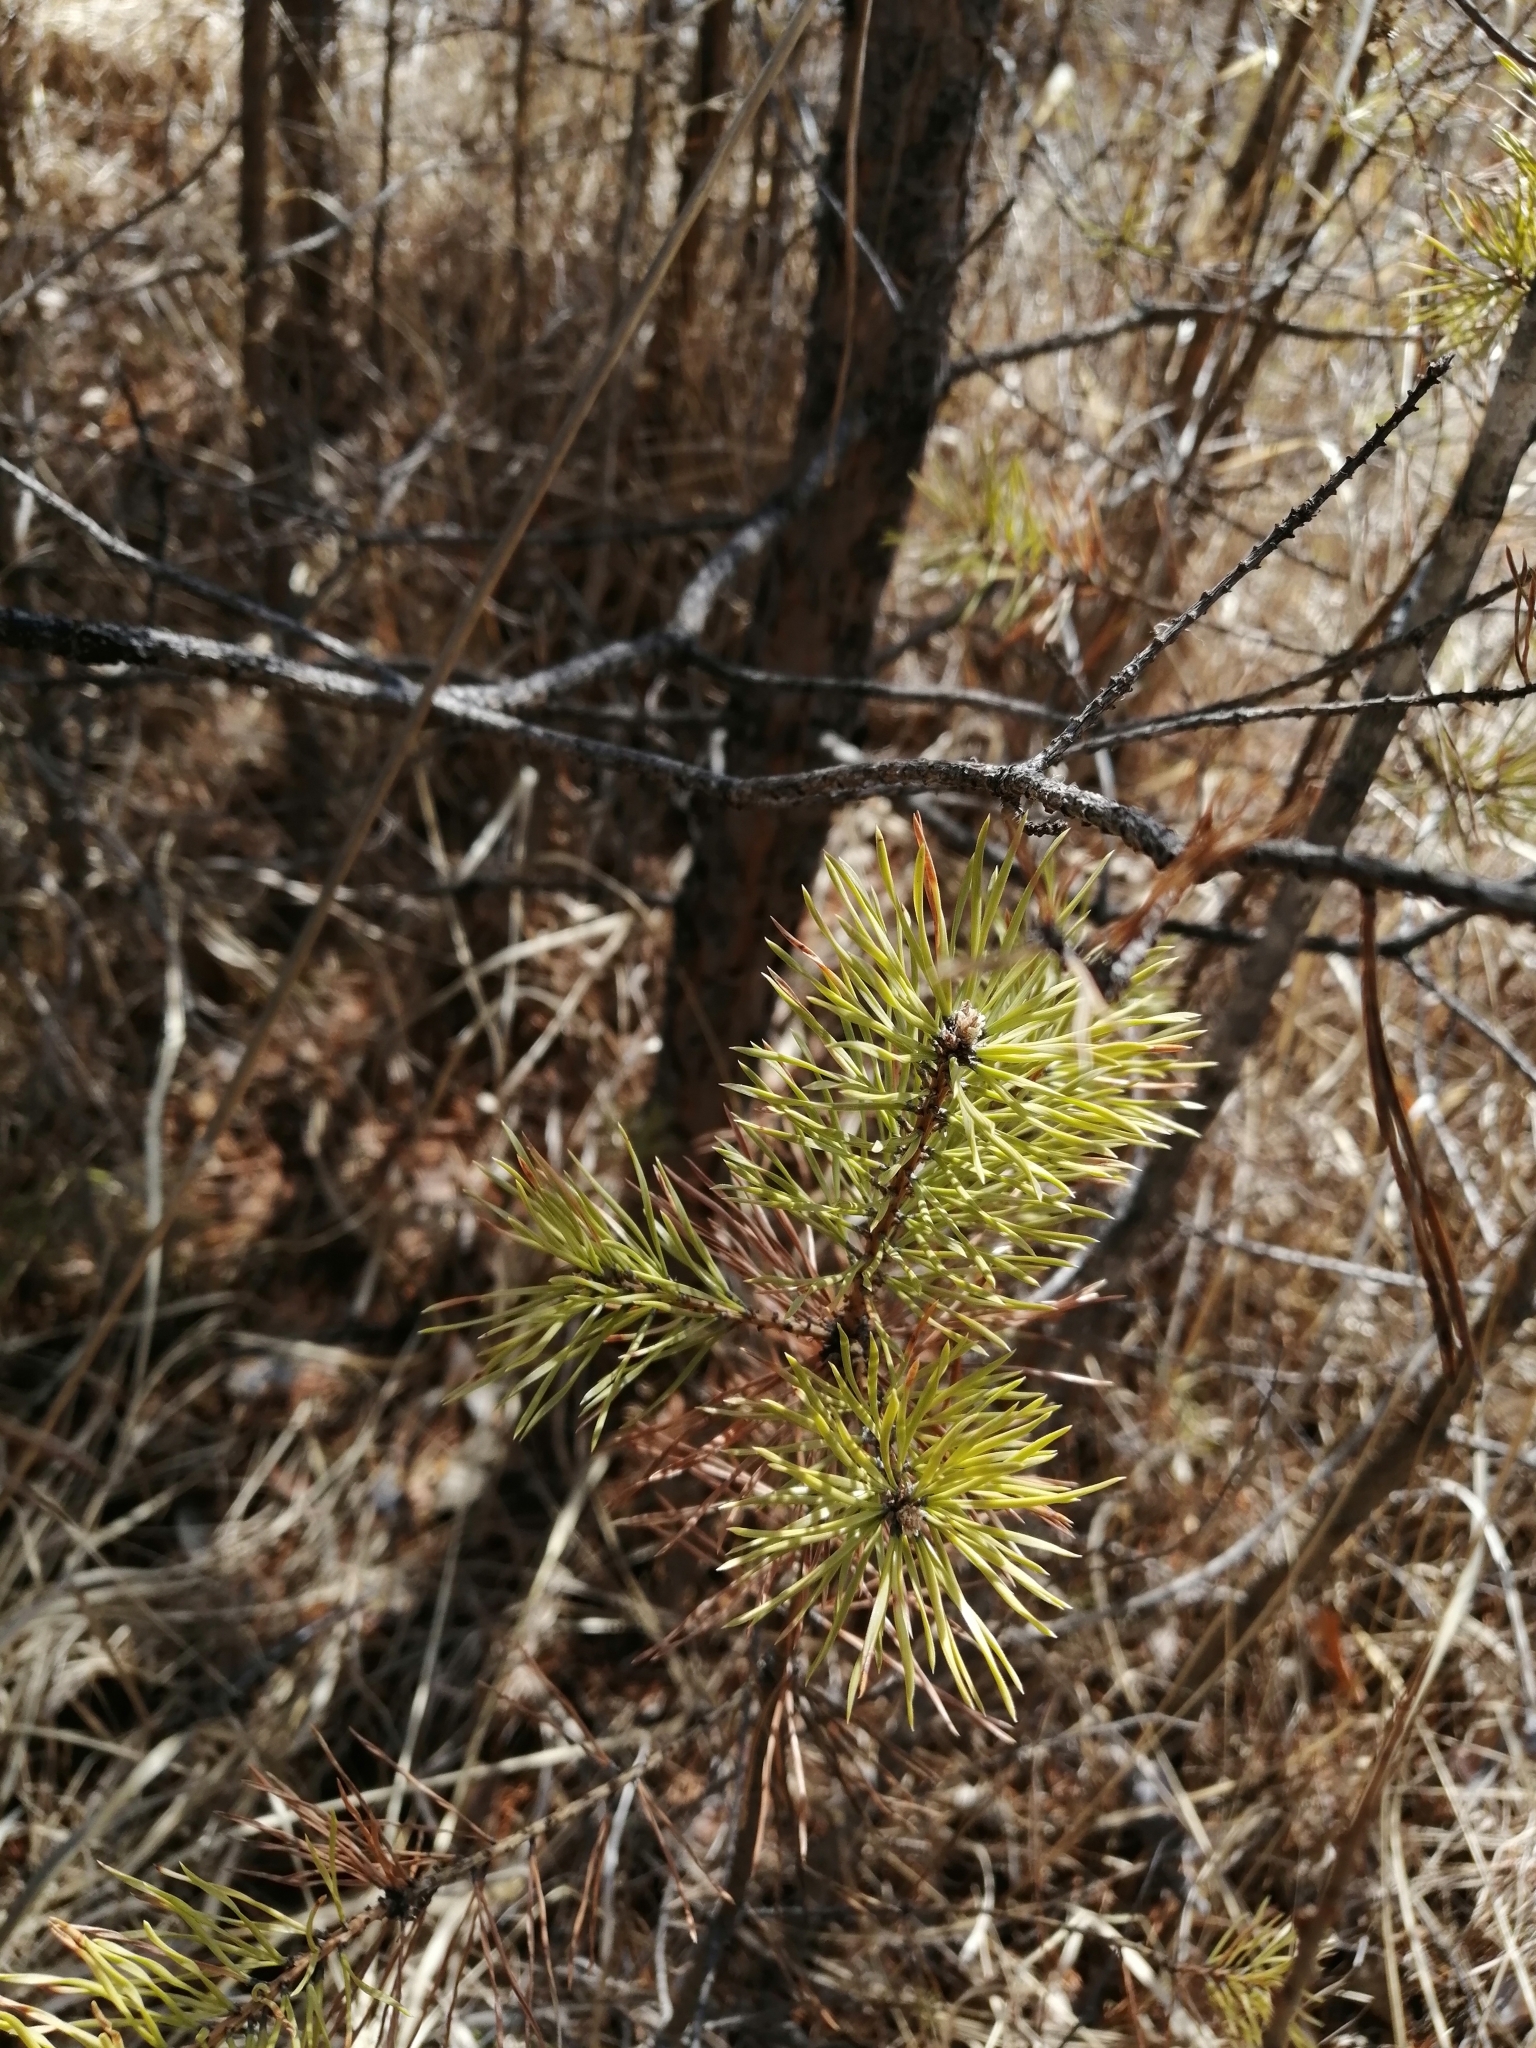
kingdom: Plantae
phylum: Tracheophyta
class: Pinopsida
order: Pinales
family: Pinaceae
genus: Pinus
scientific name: Pinus sylvestris
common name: Scots pine
